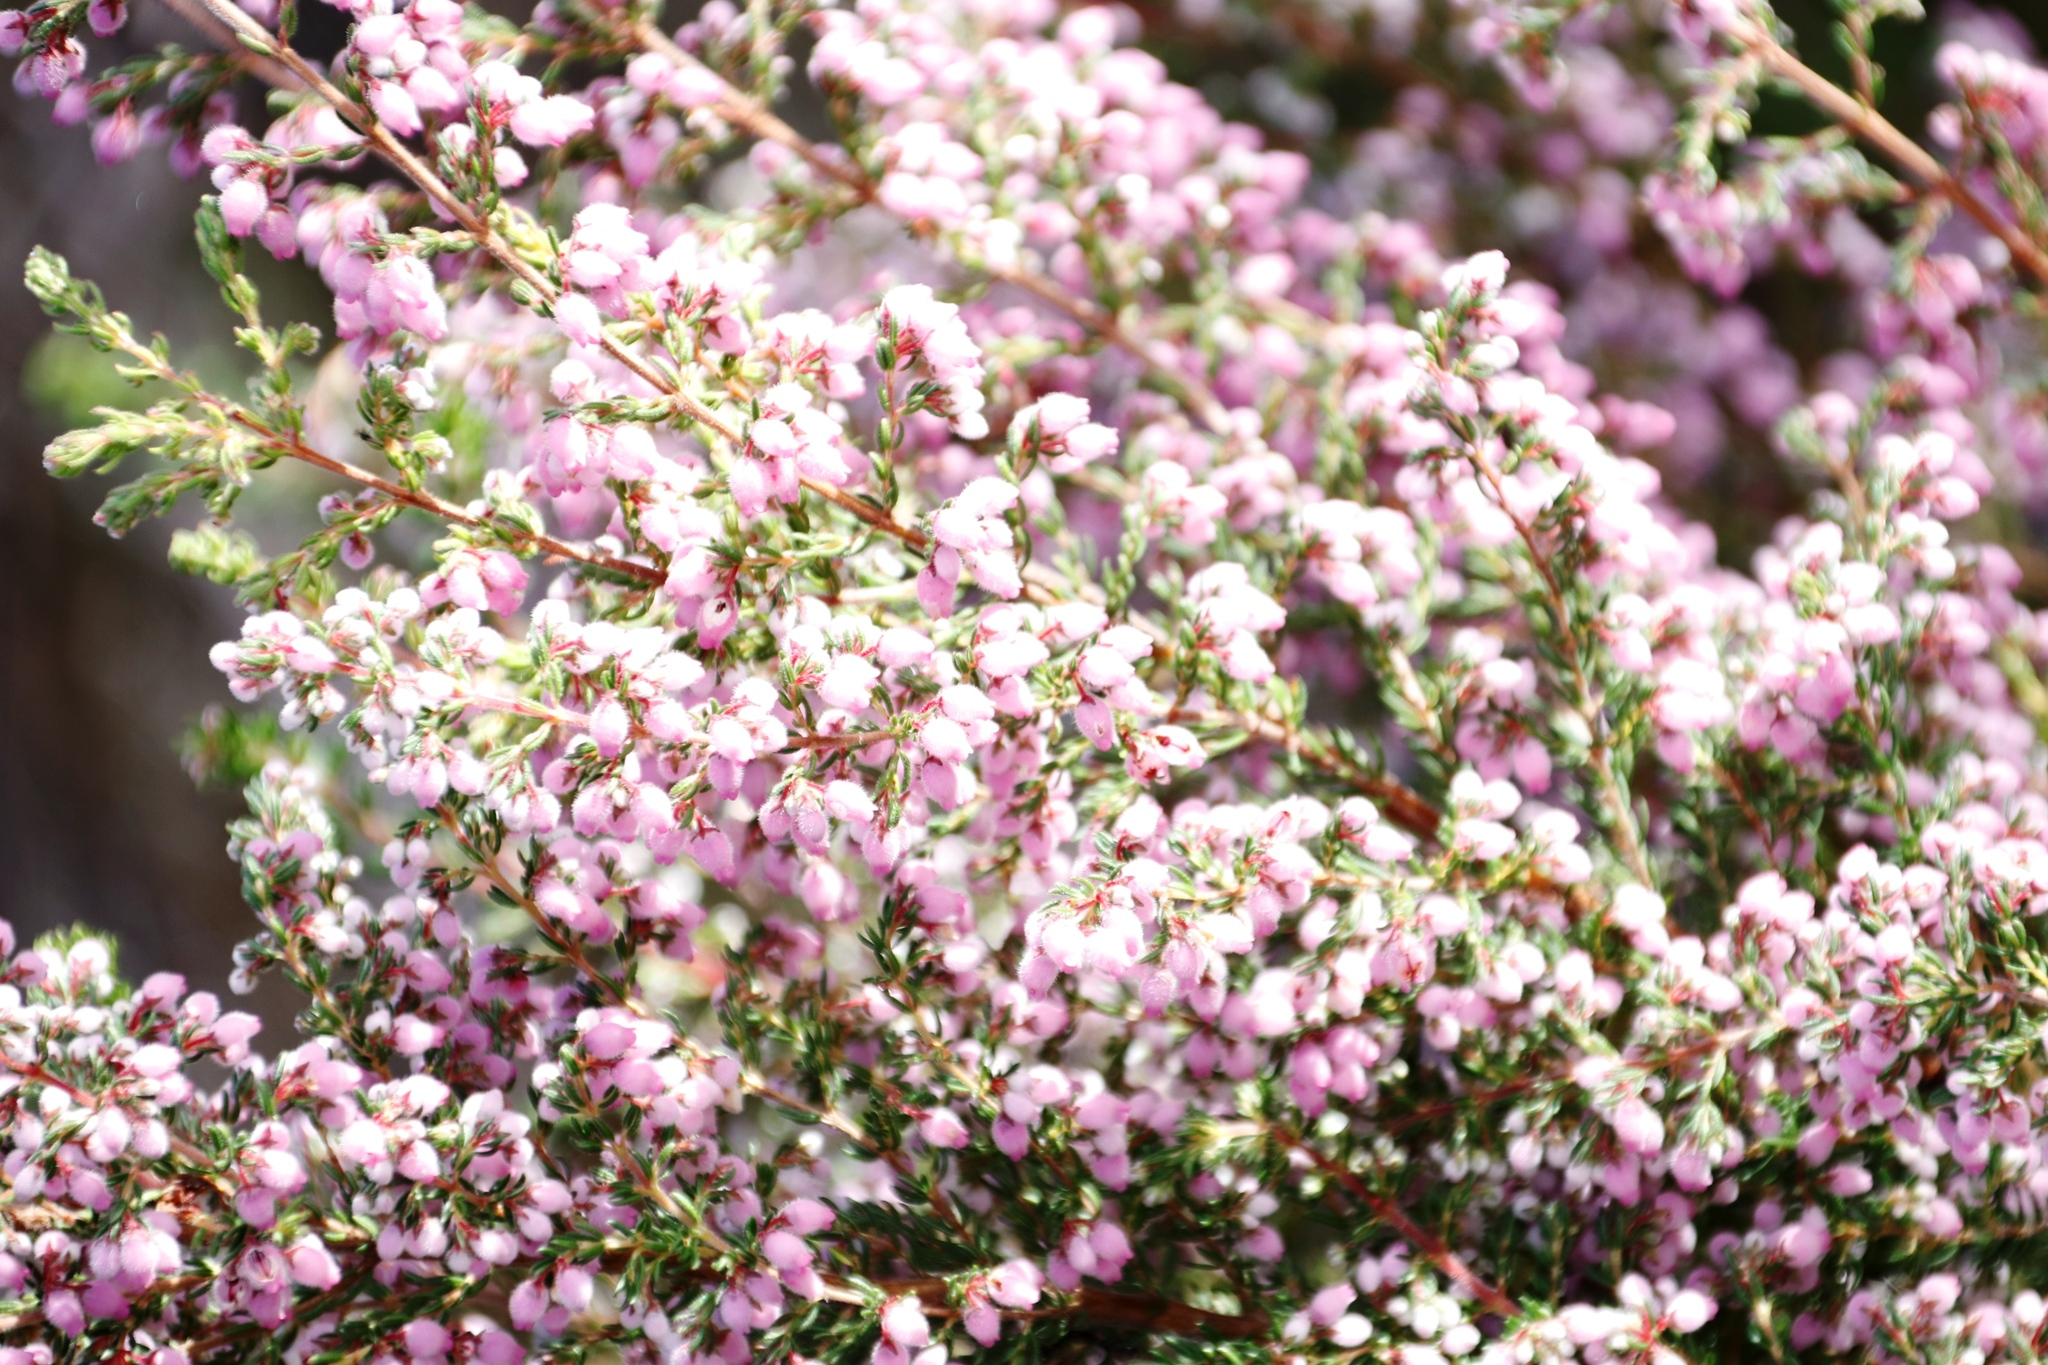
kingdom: Plantae
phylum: Tracheophyta
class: Magnoliopsida
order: Ericales
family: Ericaceae
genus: Erica
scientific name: Erica hirtiflora
